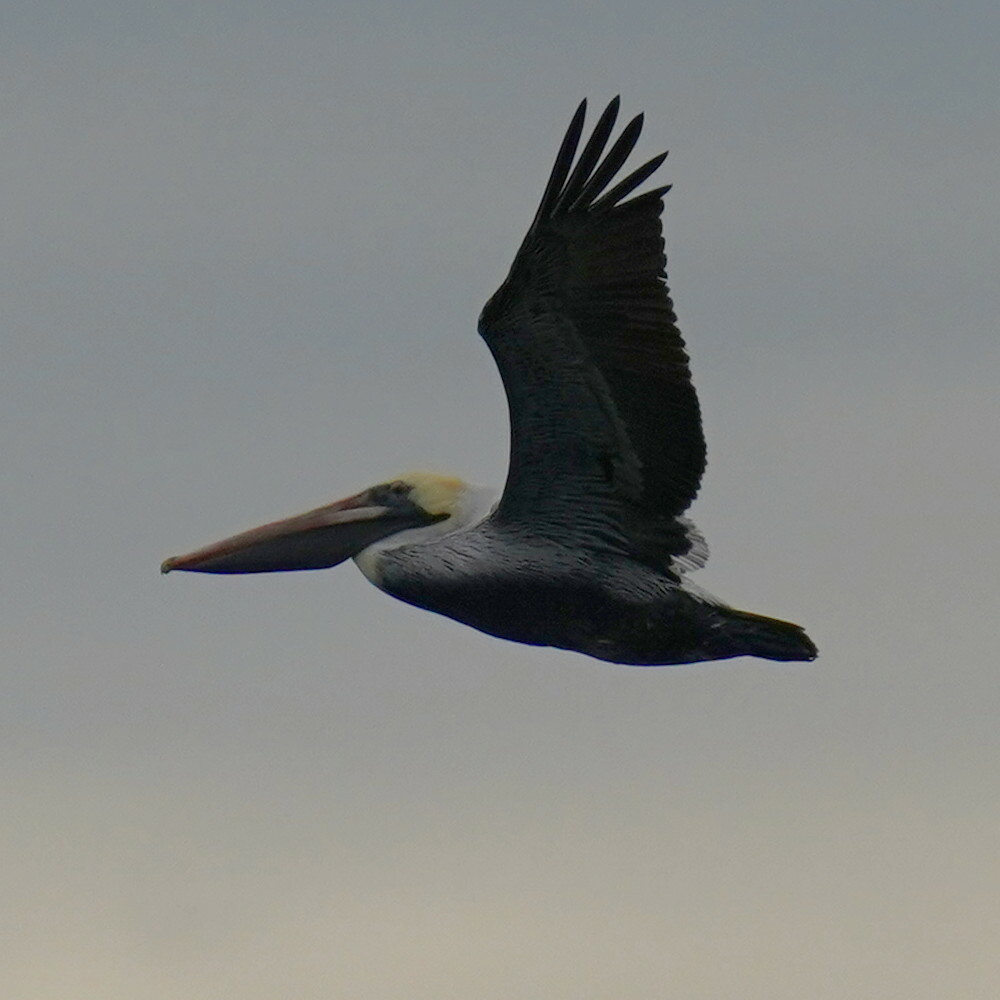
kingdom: Animalia
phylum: Chordata
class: Aves
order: Pelecaniformes
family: Pelecanidae
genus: Pelecanus
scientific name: Pelecanus occidentalis
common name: Brown pelican
